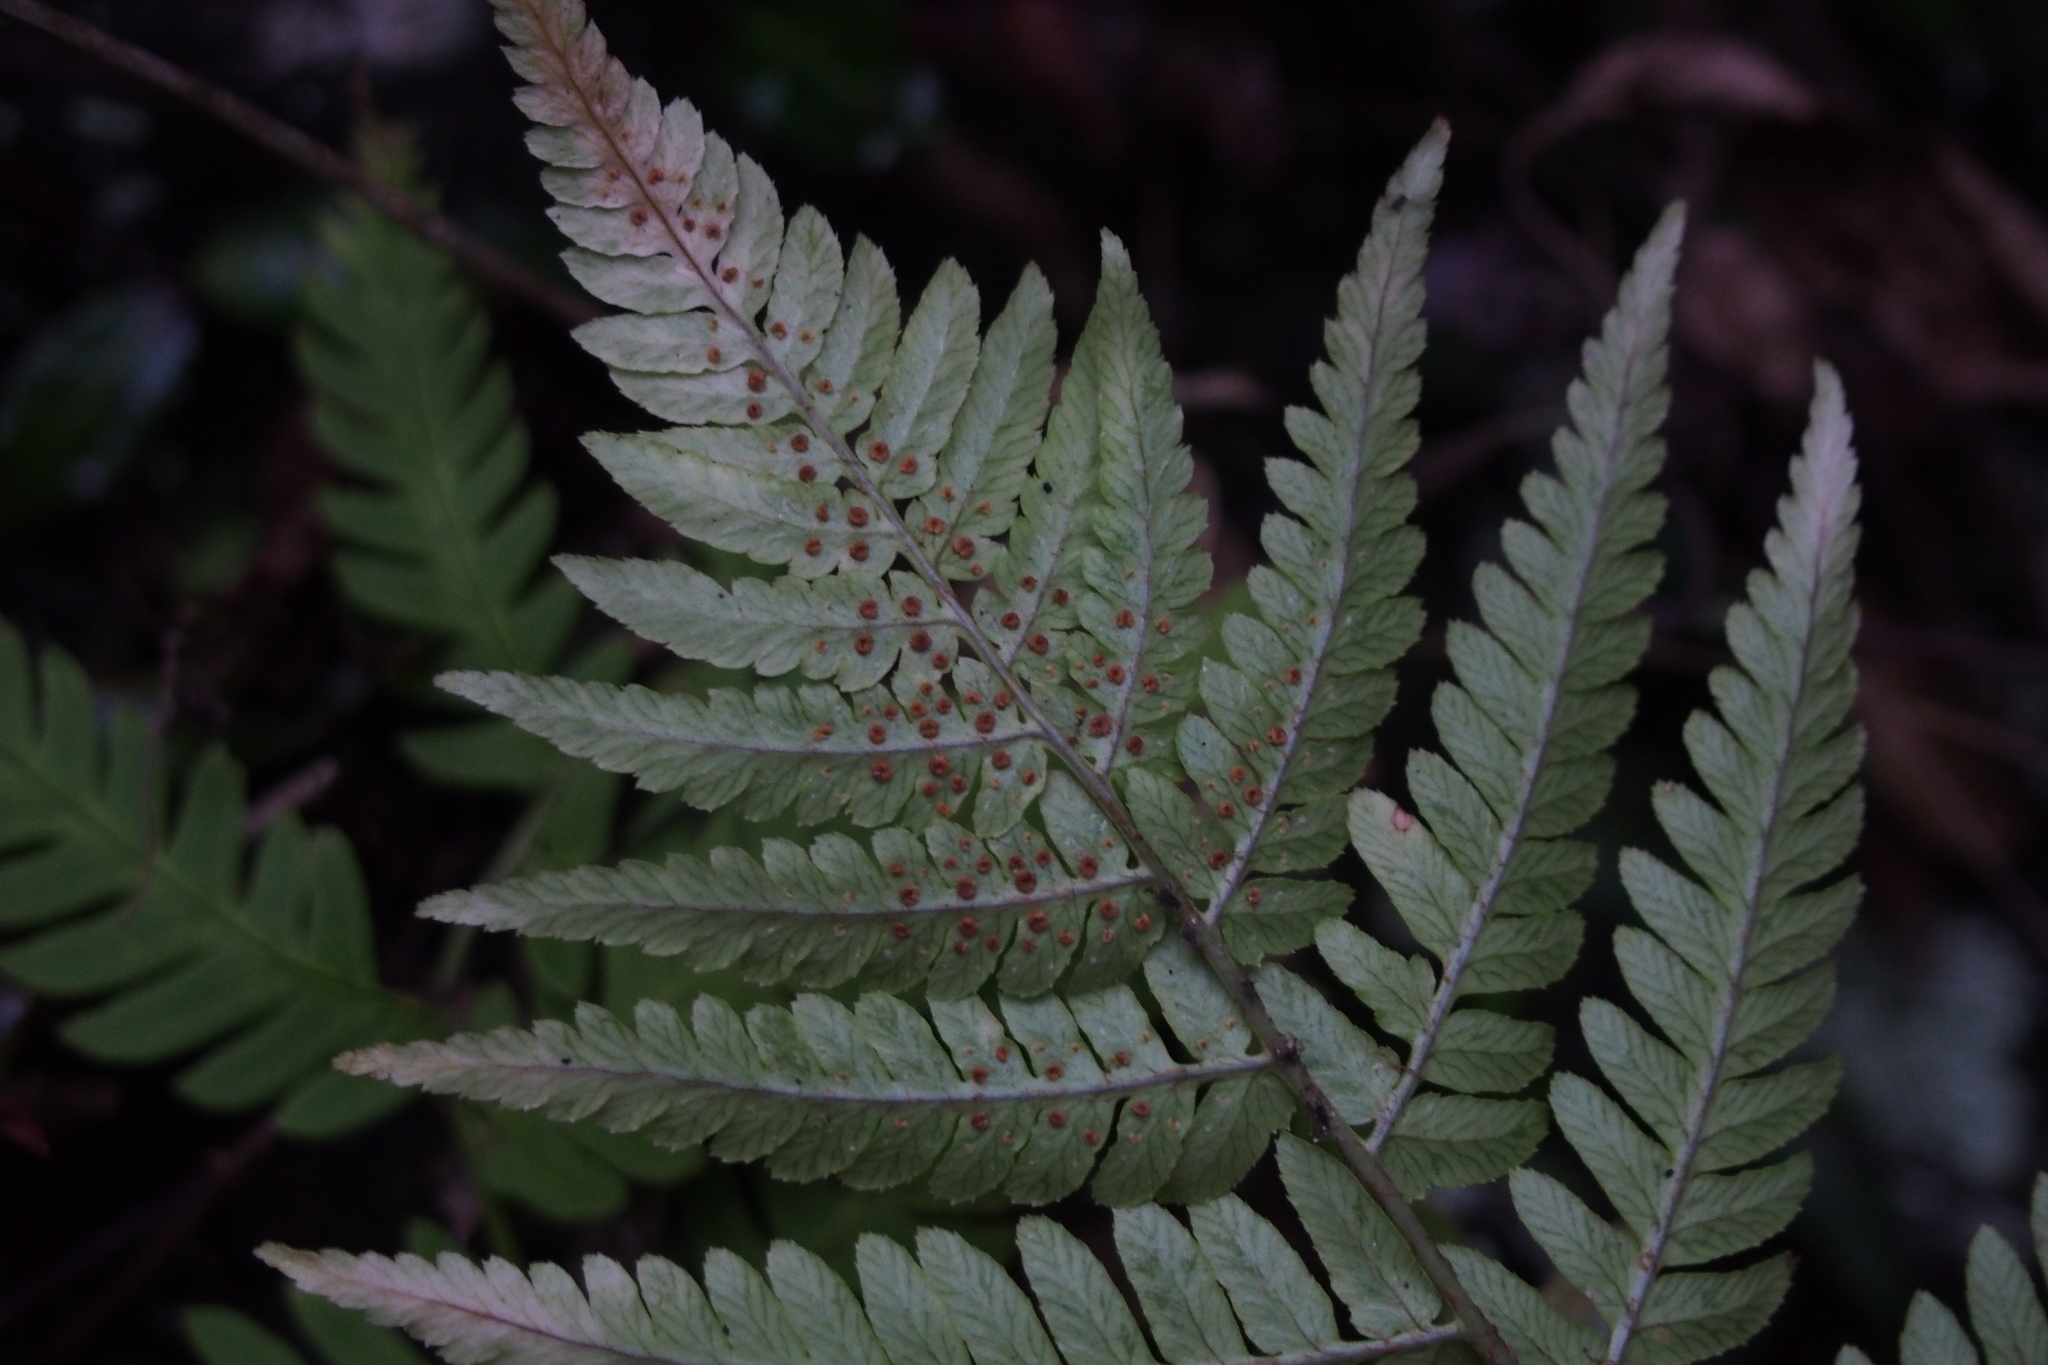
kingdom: Plantae
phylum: Tracheophyta
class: Polypodiopsida
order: Polypodiales
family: Dryopteridaceae
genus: Dryopteris
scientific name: Dryopteris lacera
